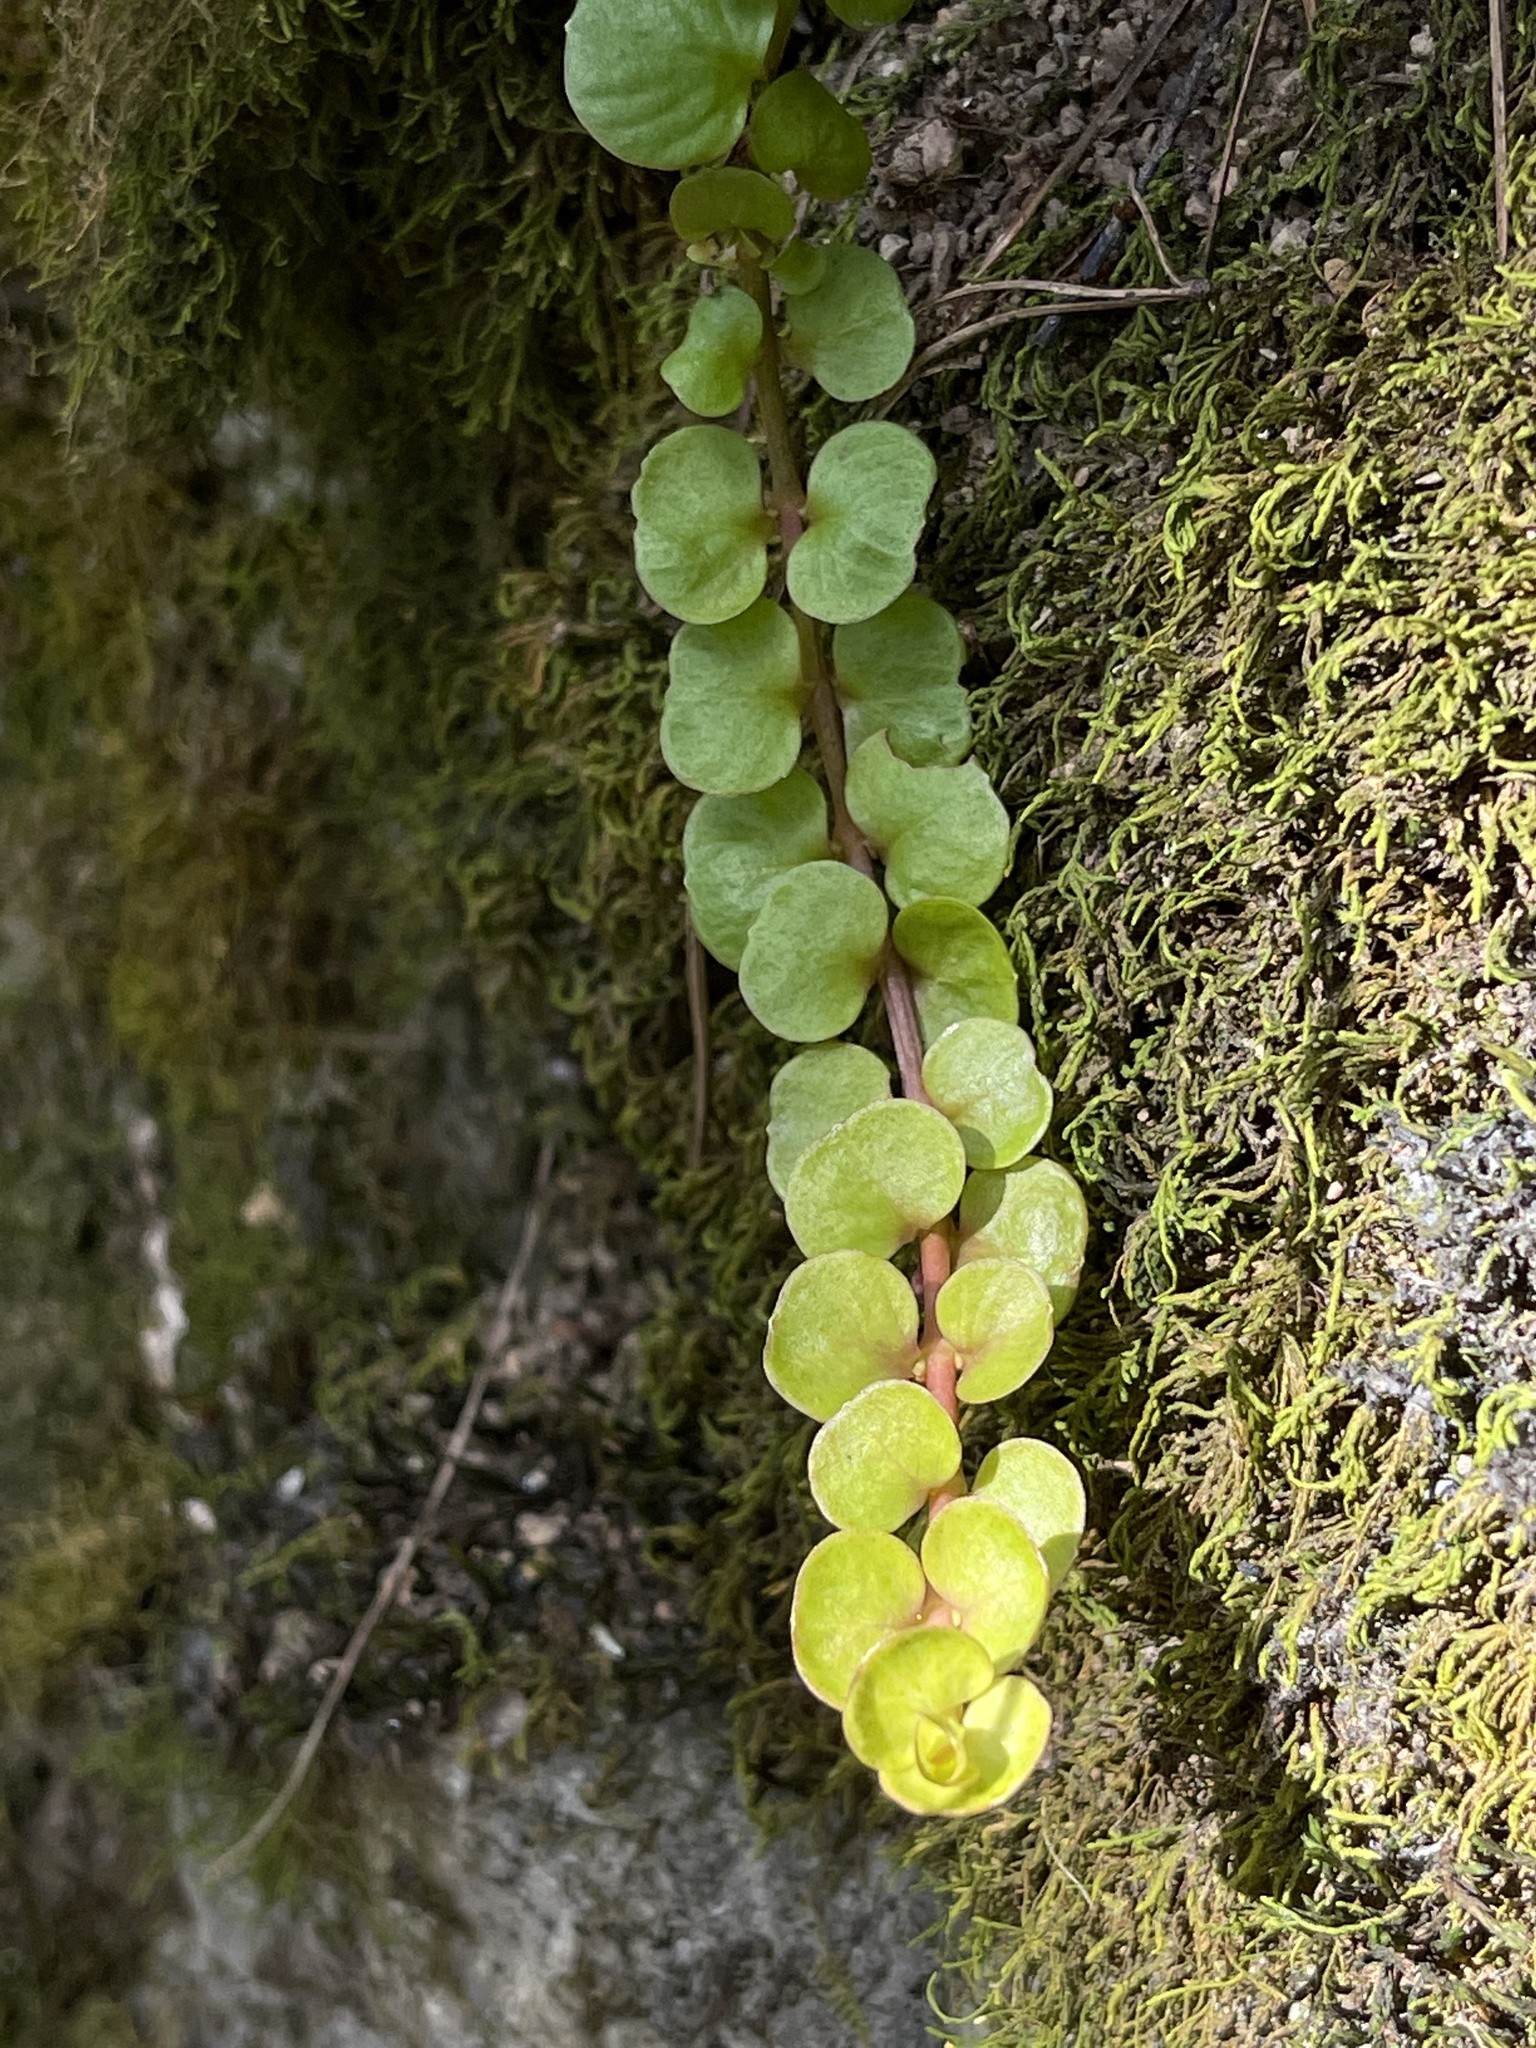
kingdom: Plantae
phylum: Tracheophyta
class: Magnoliopsida
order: Ericales
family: Primulaceae
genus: Lysimachia
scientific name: Lysimachia nummularia
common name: Moneywort
